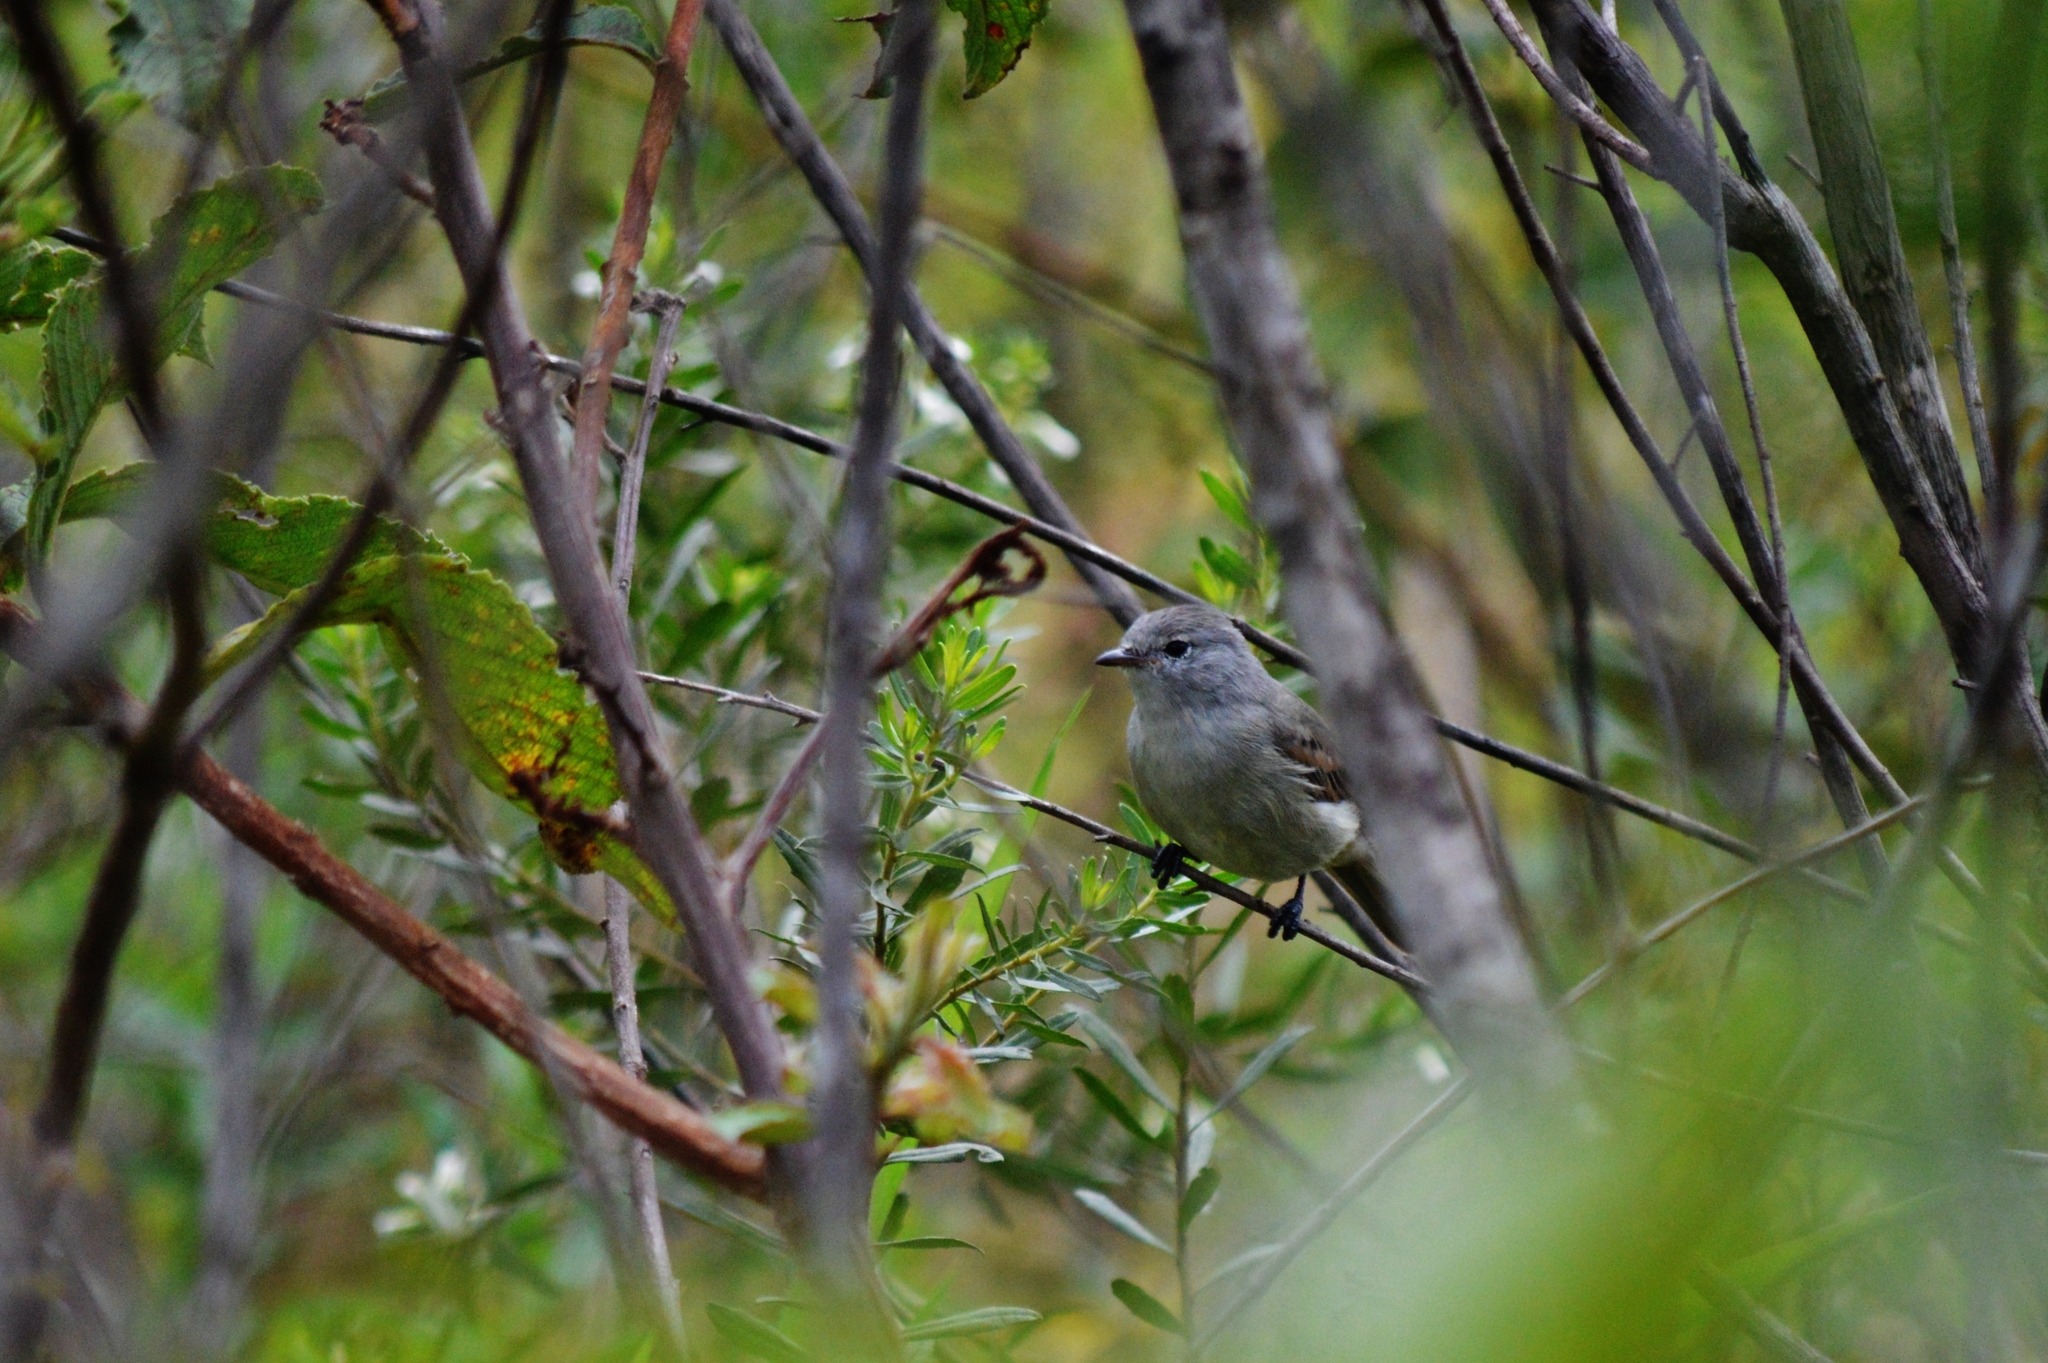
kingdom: Animalia
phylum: Chordata
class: Aves
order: Passeriformes
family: Tyrannidae
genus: Camptostoma
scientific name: Camptostoma obsoletum
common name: Southern beardless-tyrannulet
